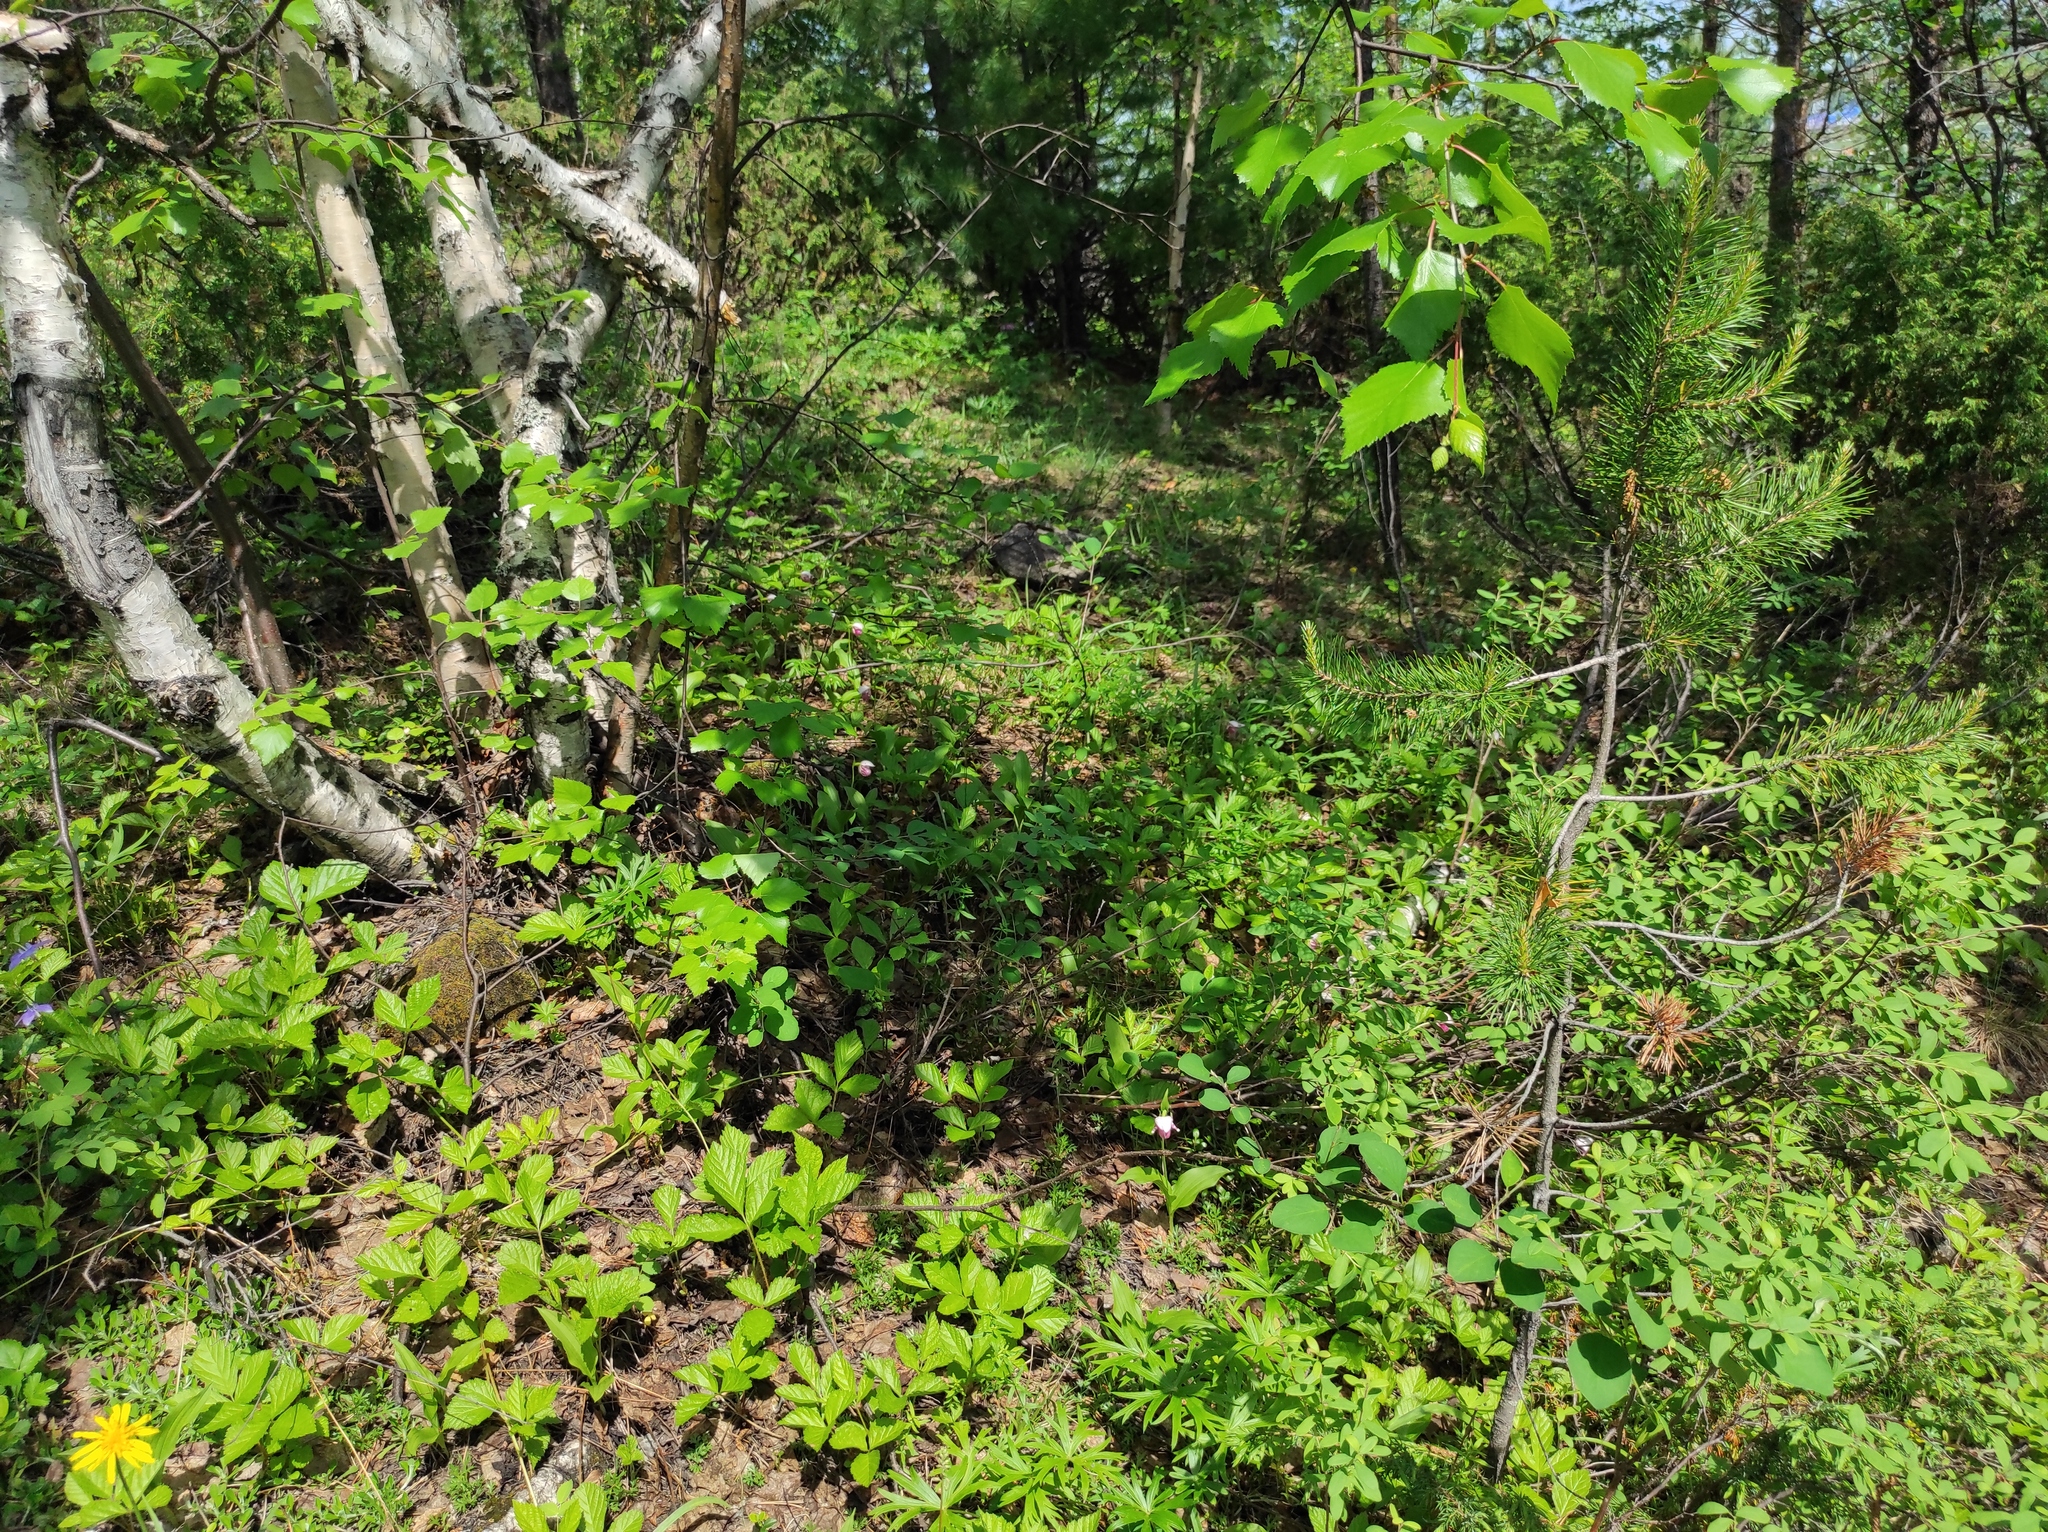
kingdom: Plantae
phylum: Tracheophyta
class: Liliopsida
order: Asparagales
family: Orchidaceae
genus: Cypripedium
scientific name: Cypripedium guttatum
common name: Pink lady slipper
